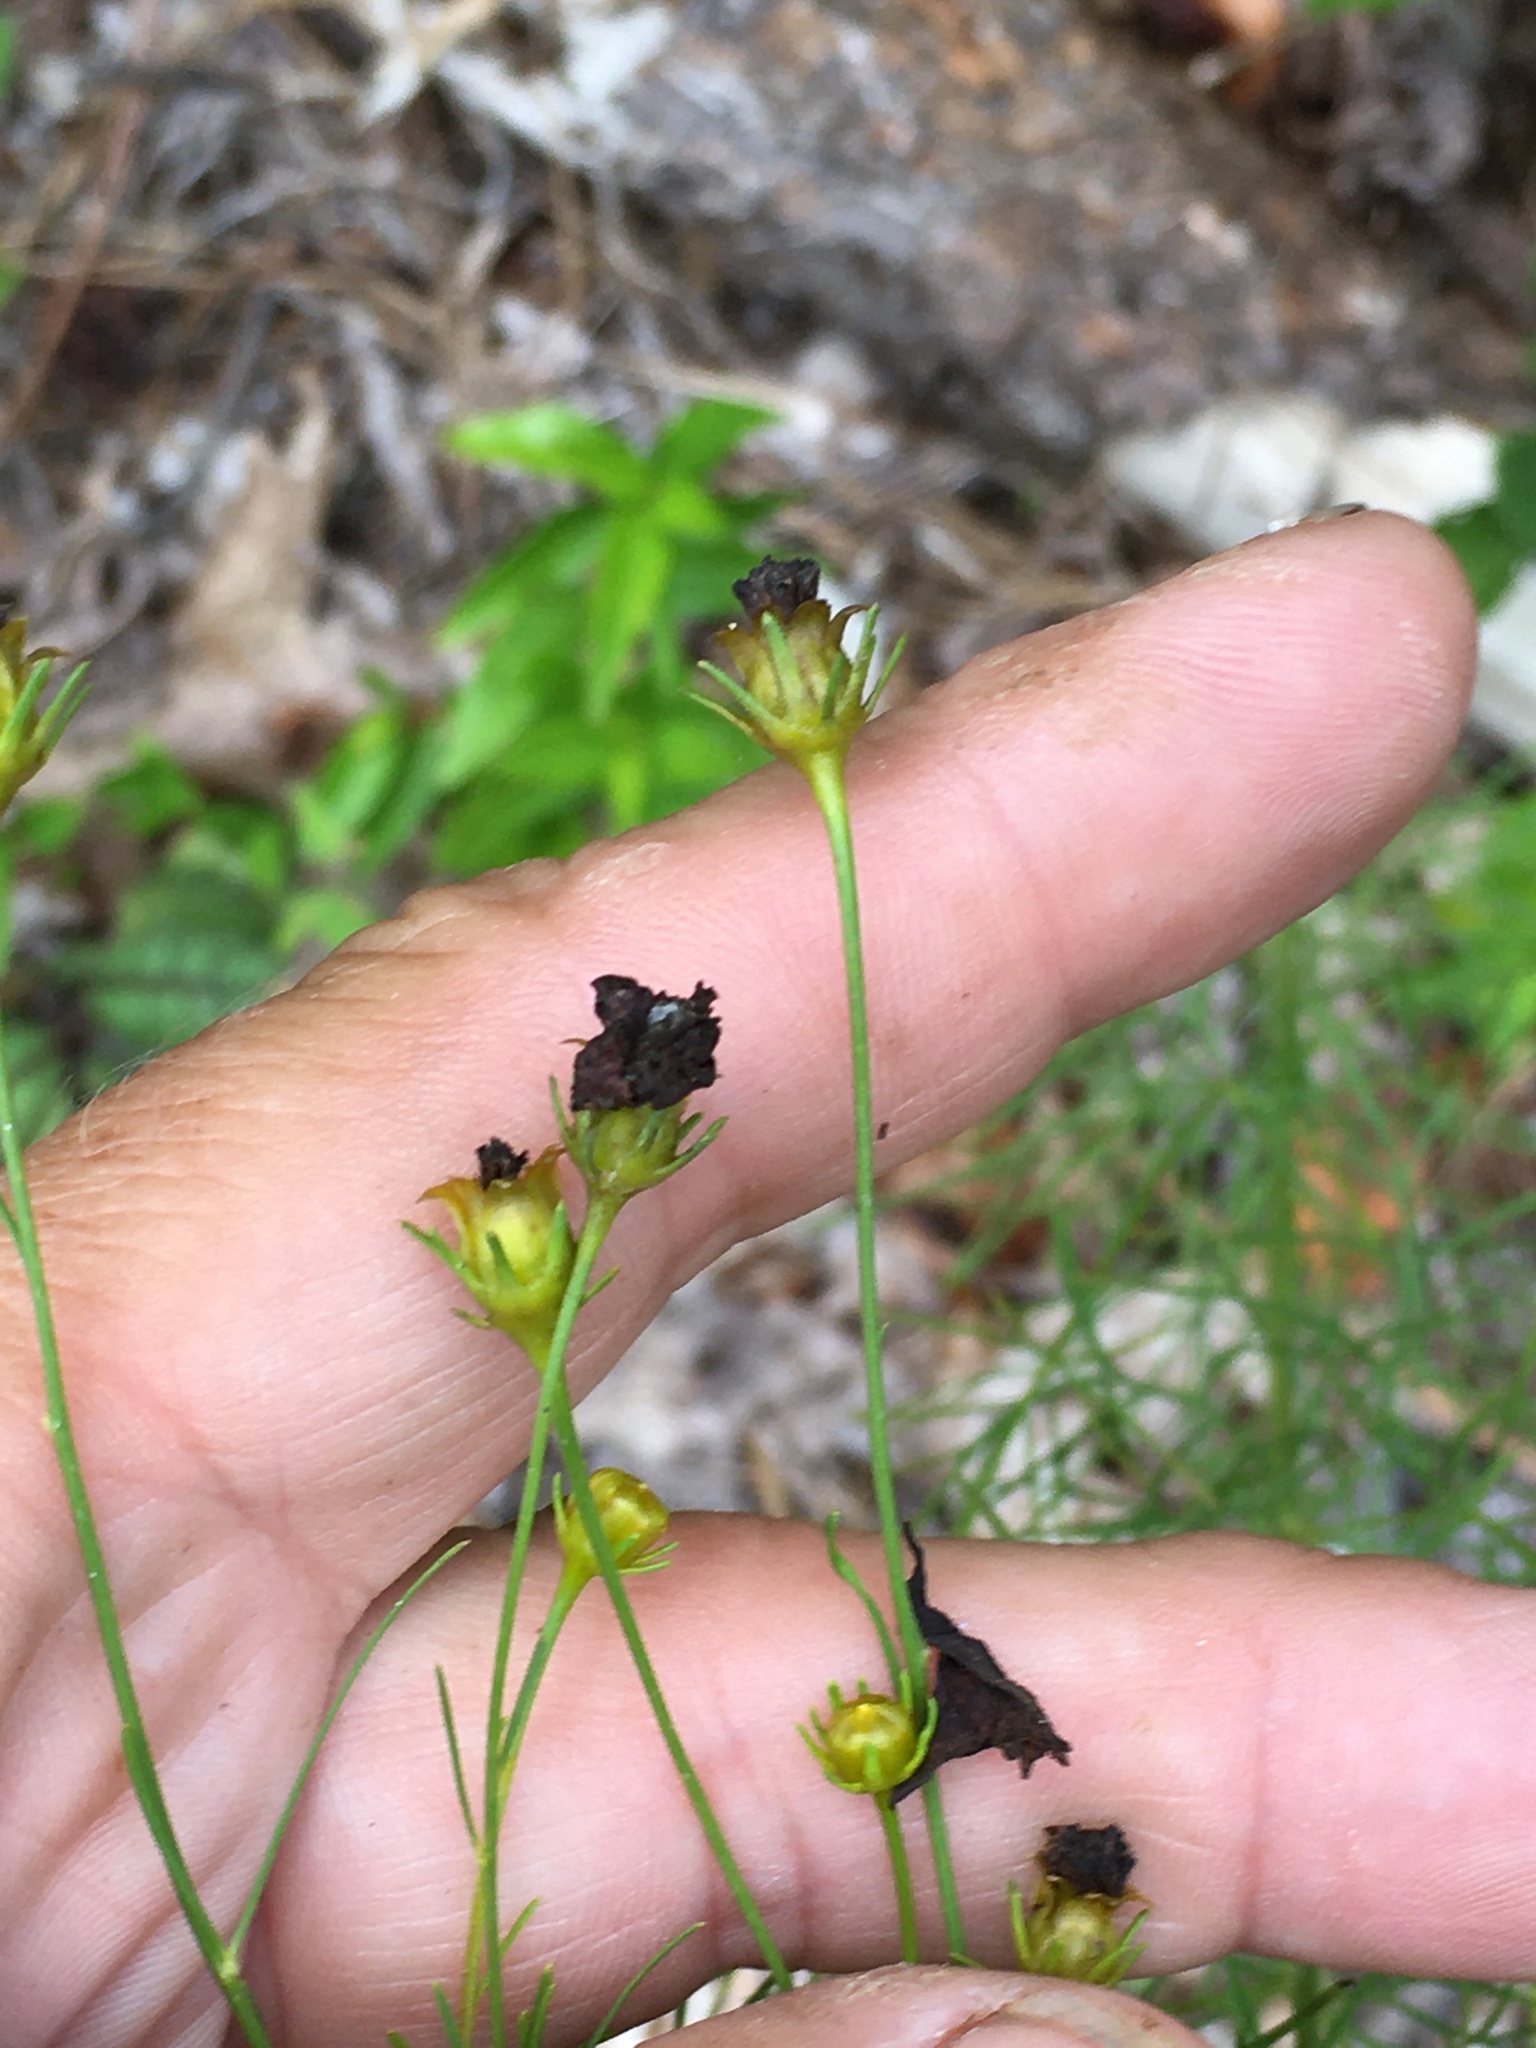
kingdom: Plantae
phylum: Tracheophyta
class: Magnoliopsida
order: Asterales
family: Asteraceae
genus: Coreopsis
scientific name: Coreopsis verticillata
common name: Whorled tickseed
